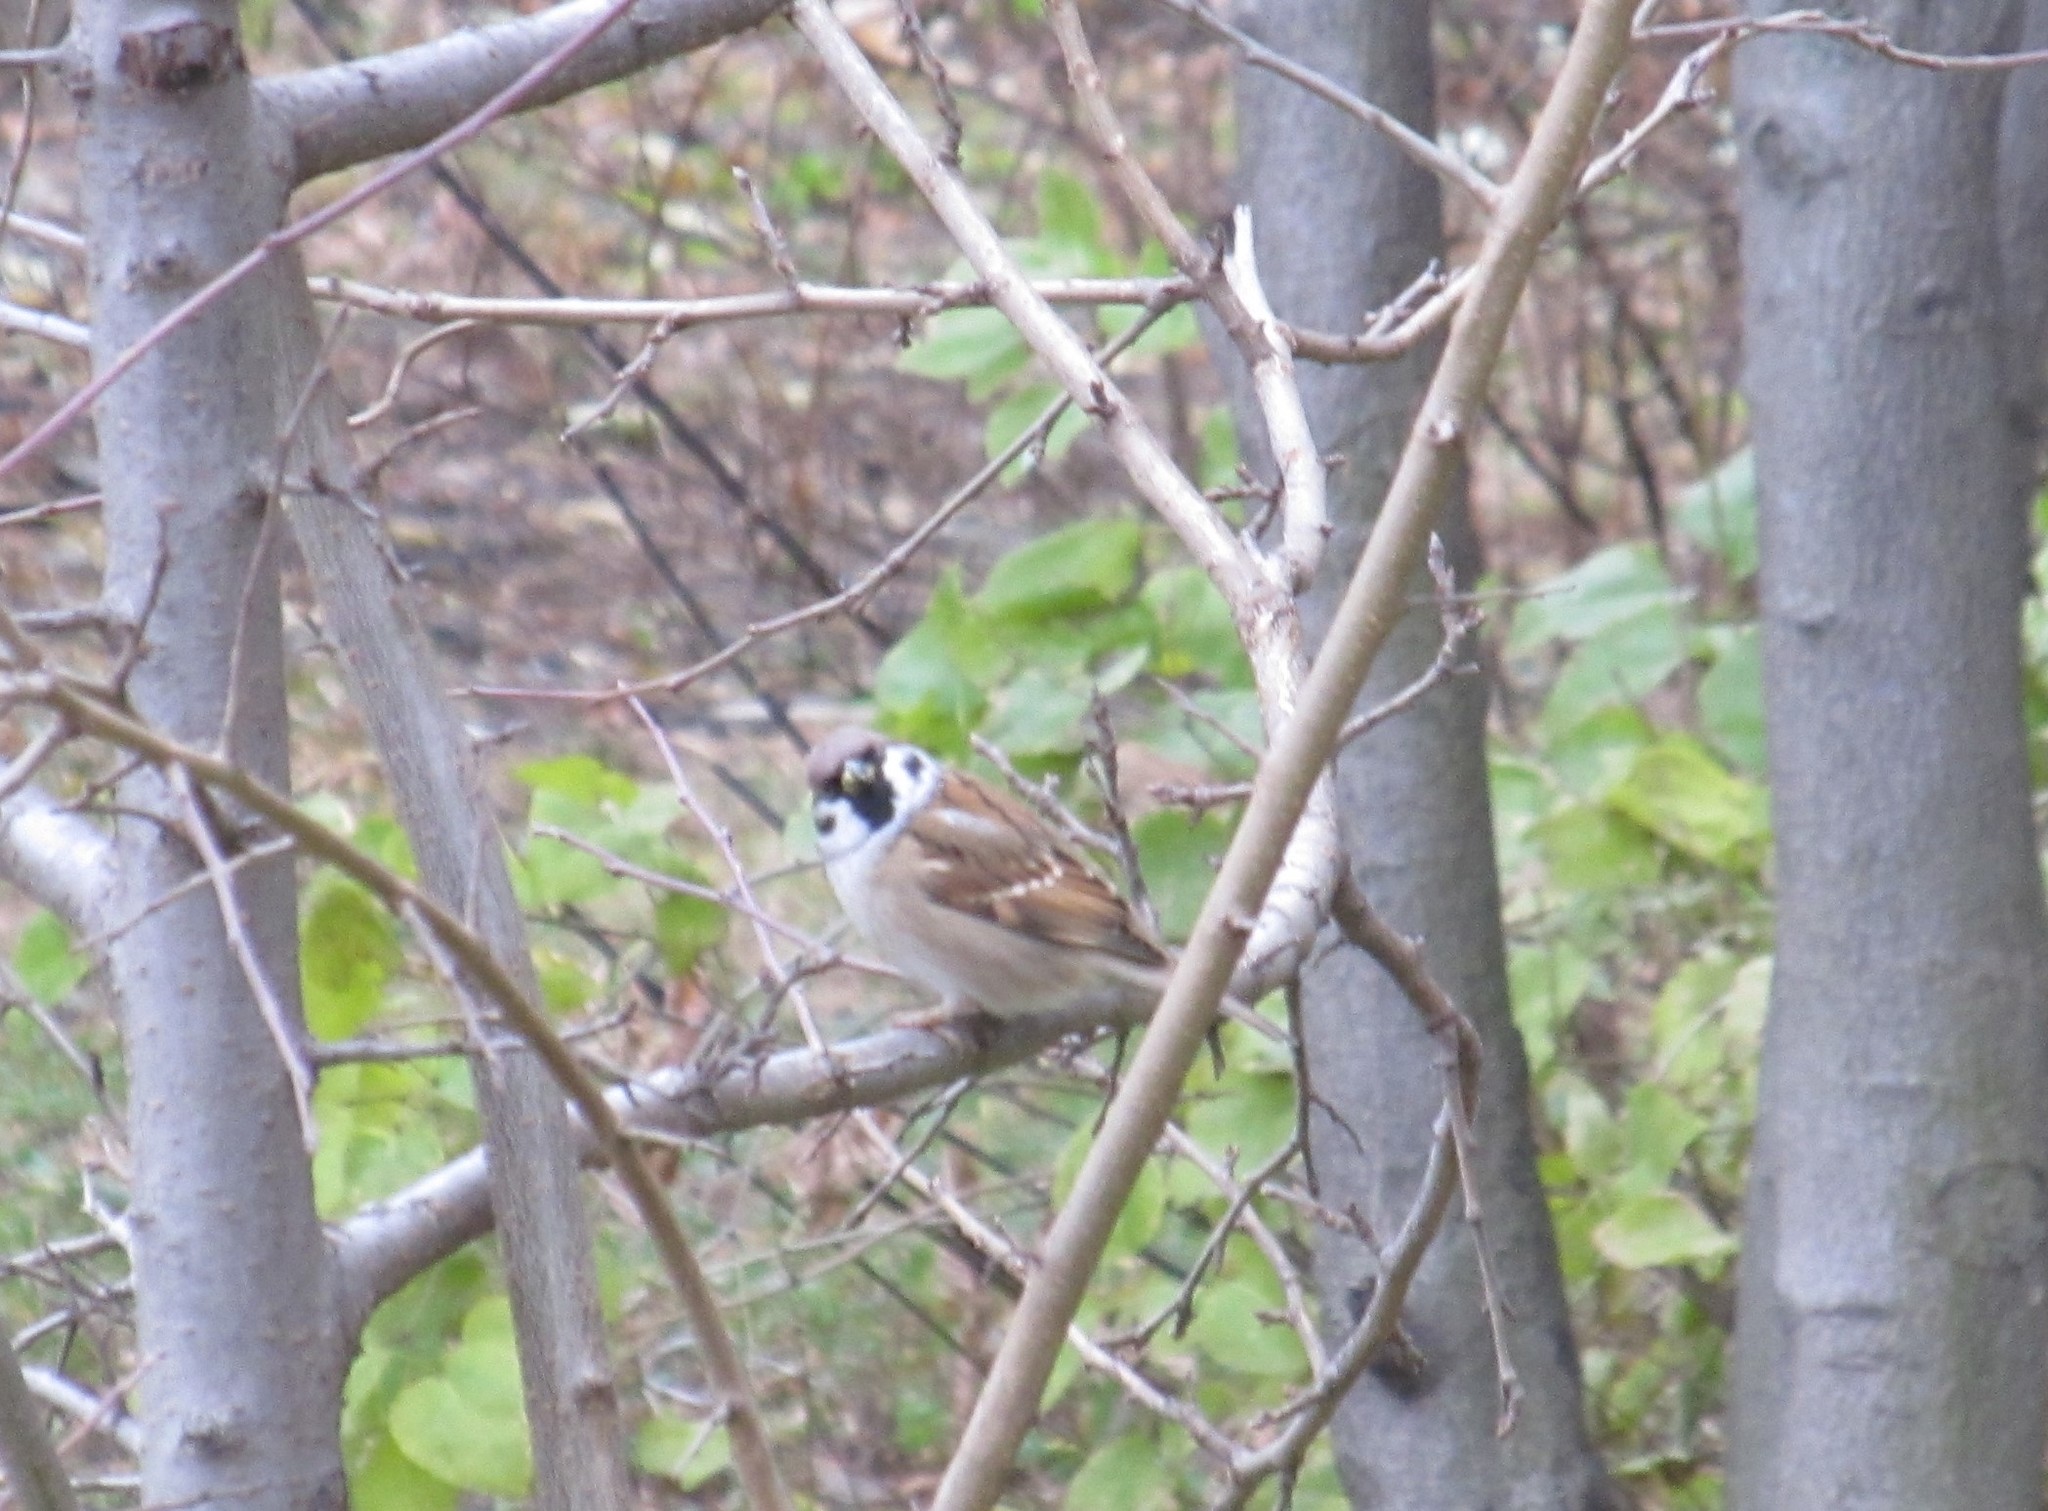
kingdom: Animalia
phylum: Chordata
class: Aves
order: Passeriformes
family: Passeridae
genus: Passer
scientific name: Passer montanus
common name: Eurasian tree sparrow
